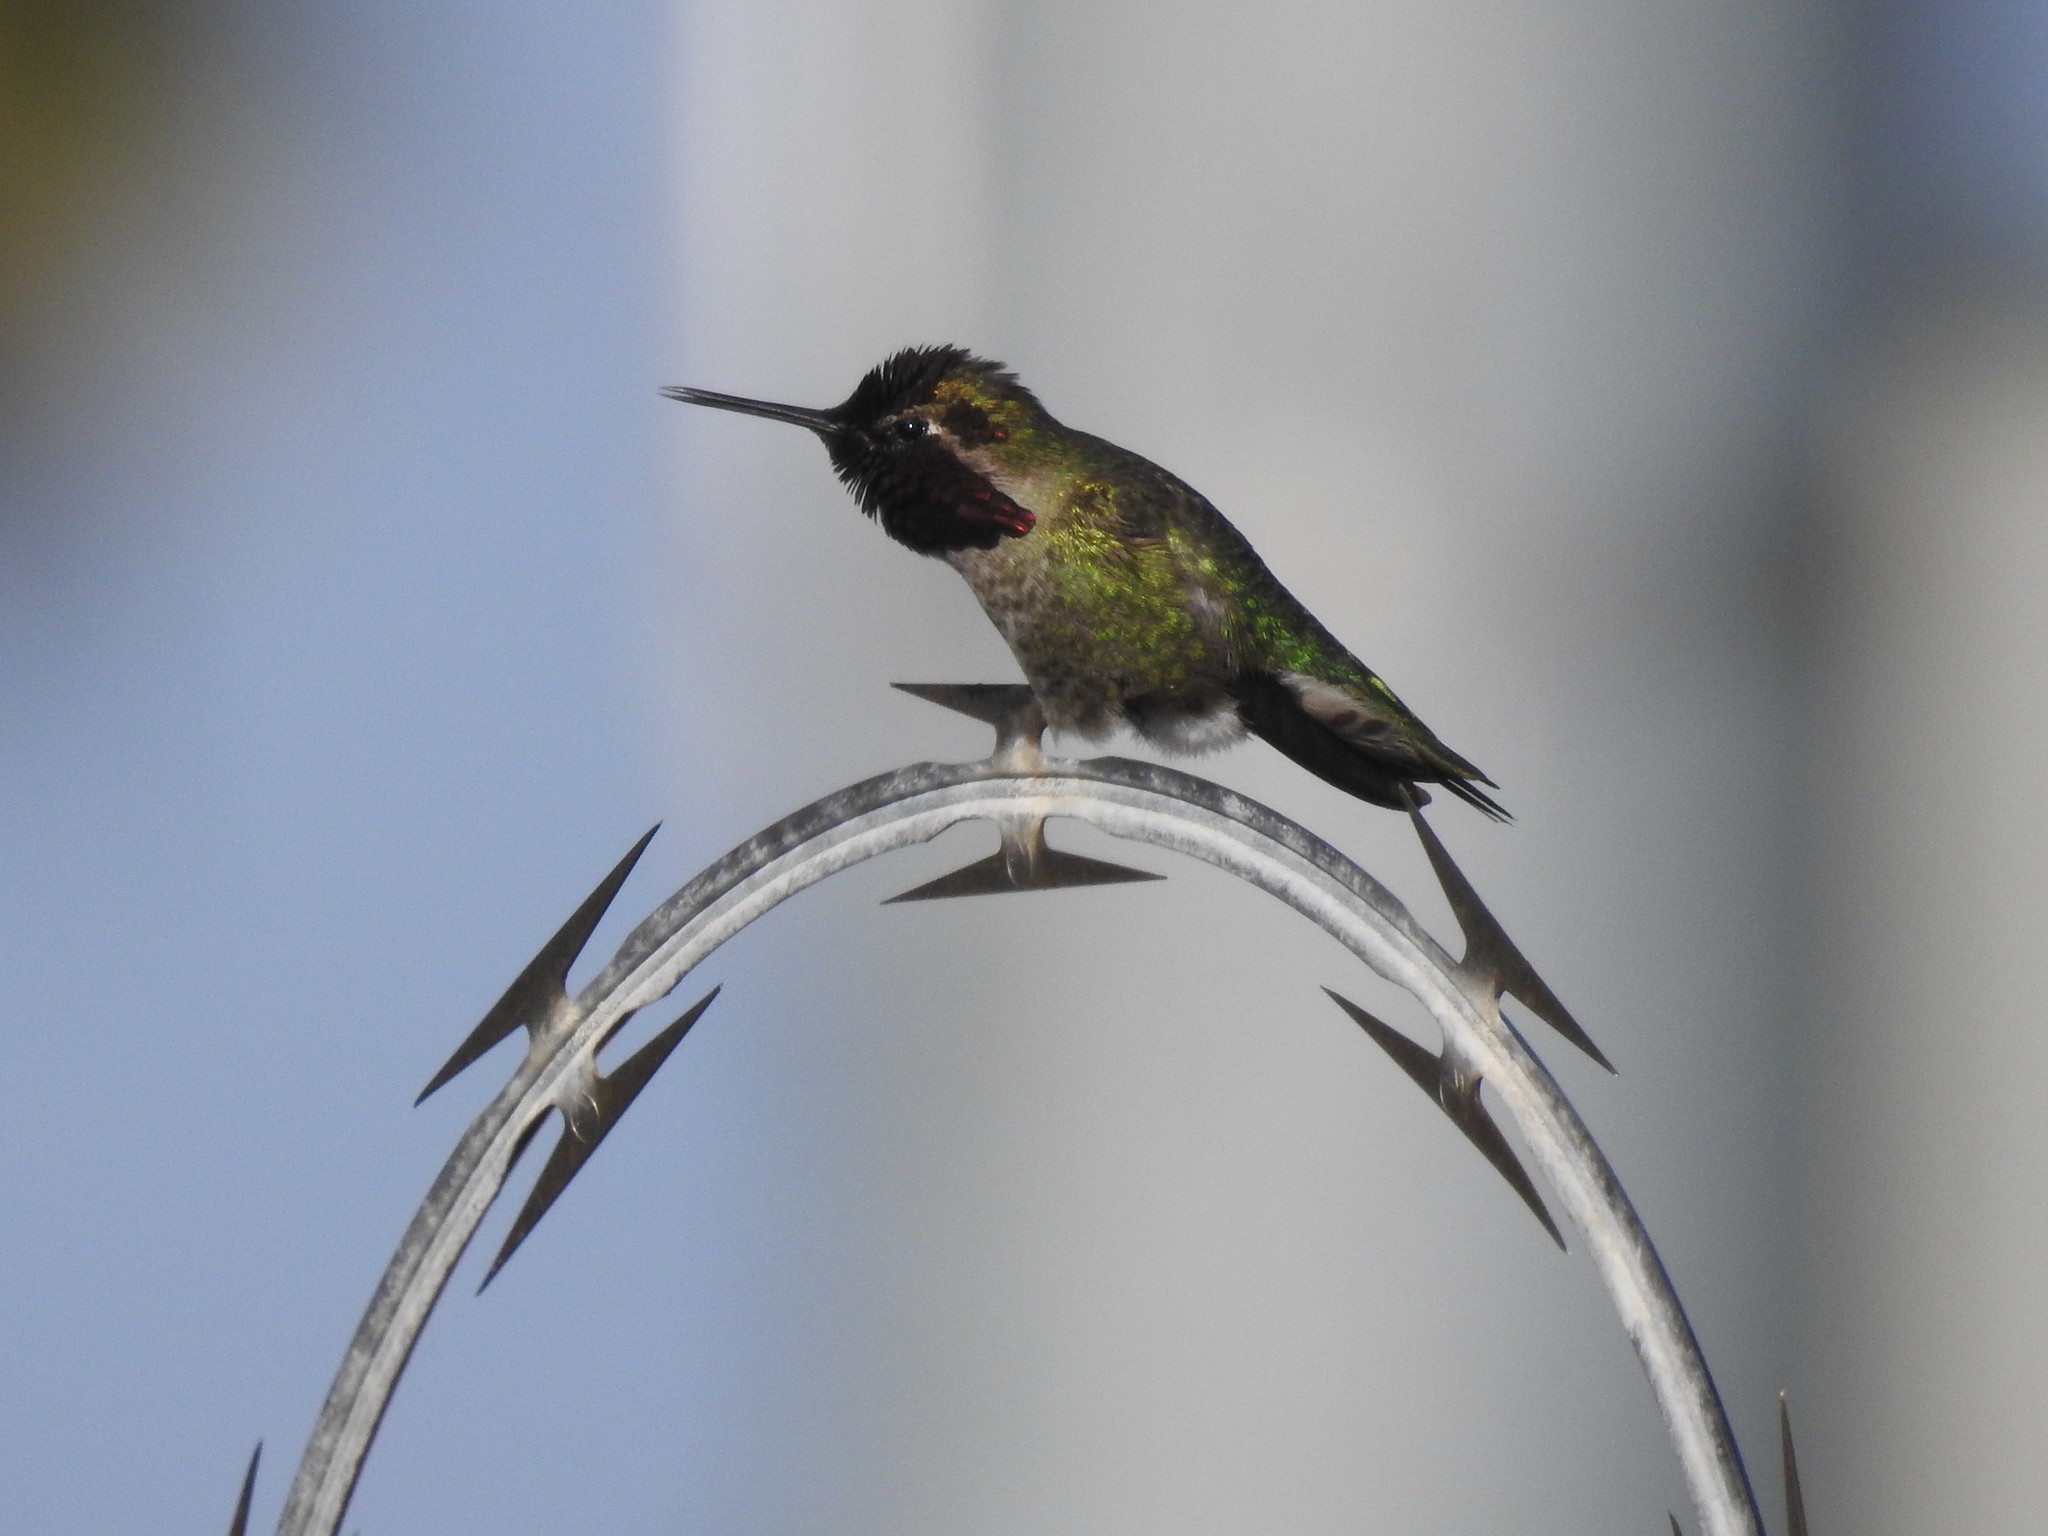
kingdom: Animalia
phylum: Chordata
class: Aves
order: Apodiformes
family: Trochilidae
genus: Calypte
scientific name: Calypte anna
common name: Anna's hummingbird
